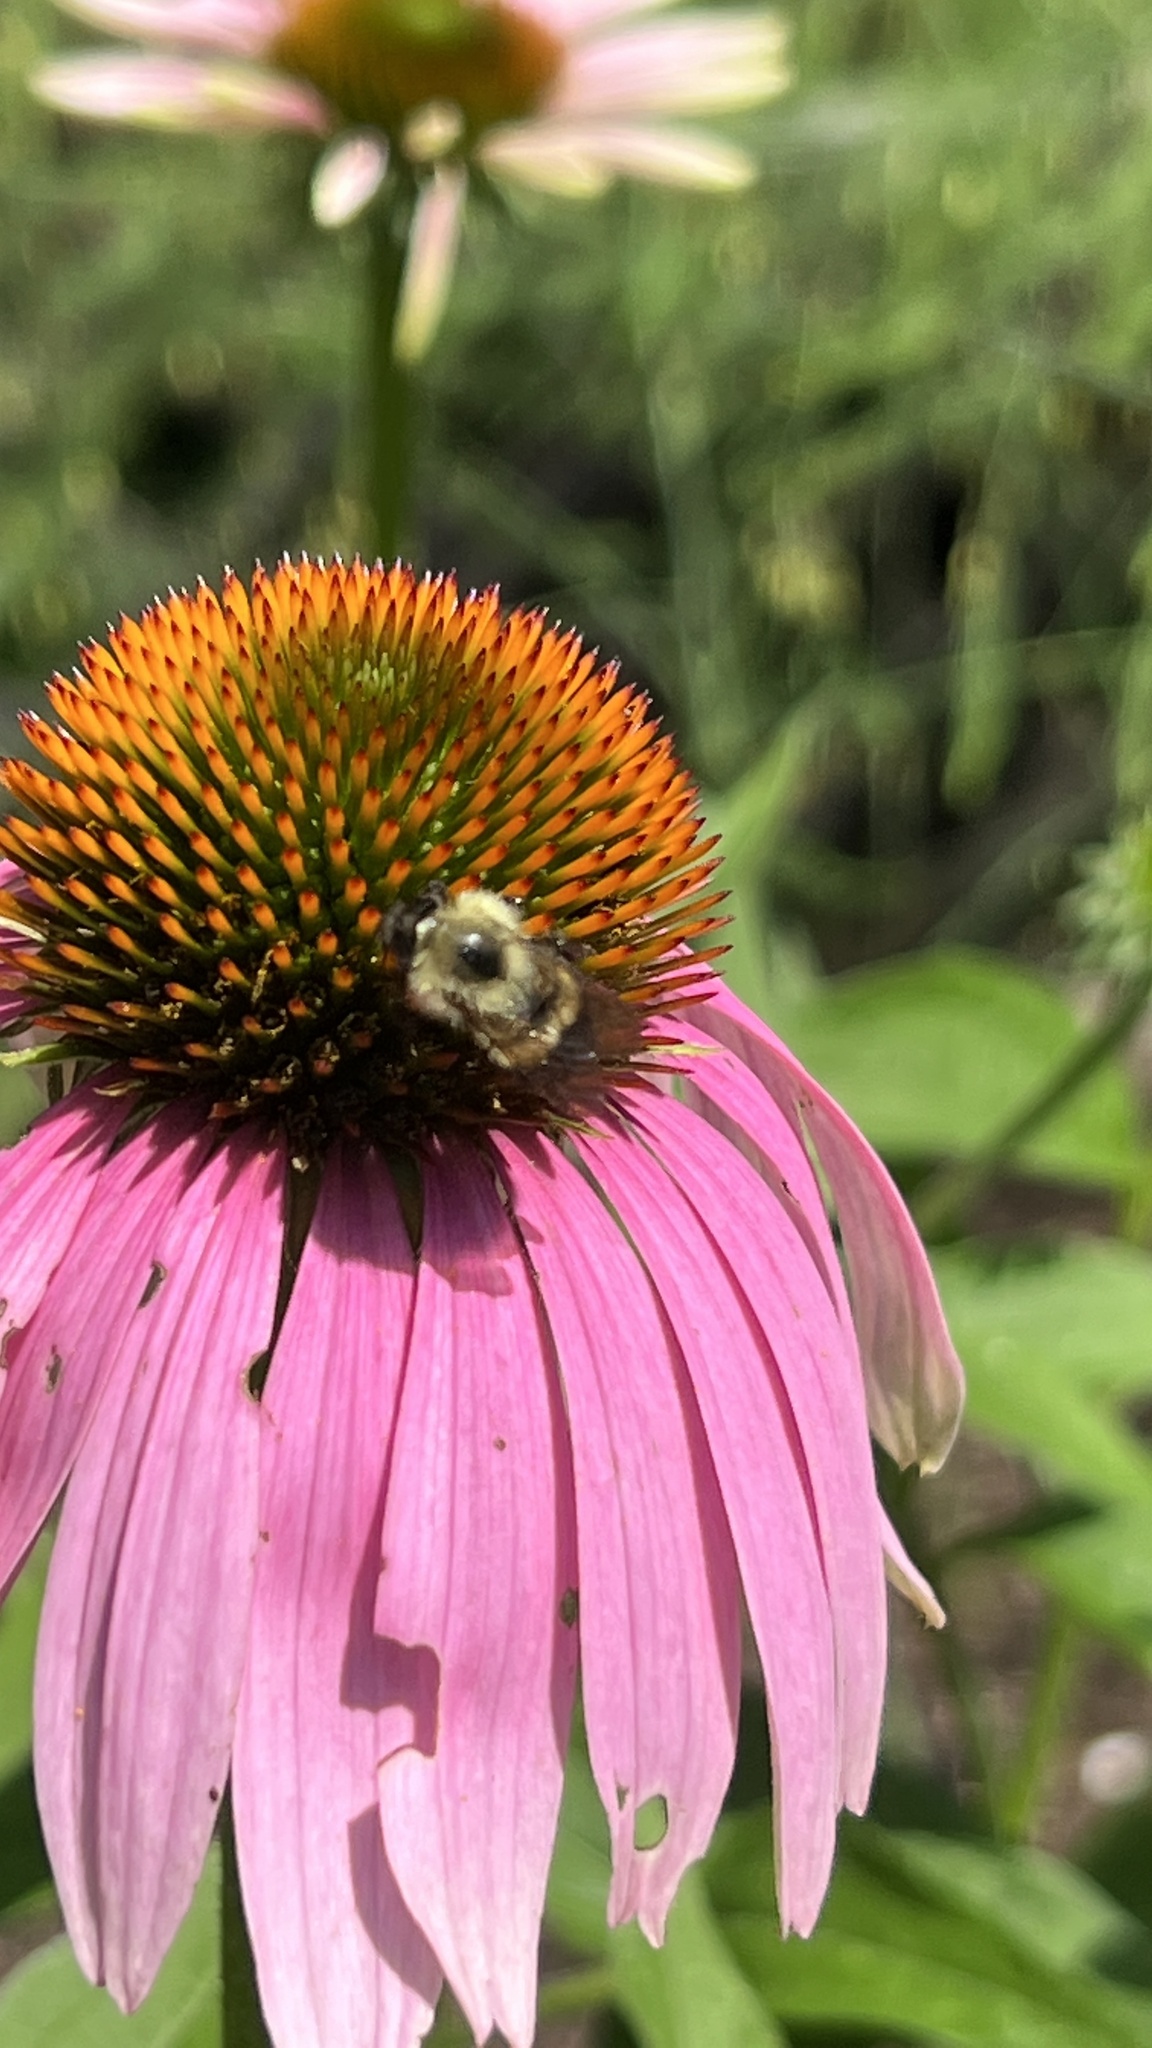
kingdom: Animalia
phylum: Arthropoda
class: Insecta
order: Hymenoptera
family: Apidae
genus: Pyrobombus
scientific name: Pyrobombus
